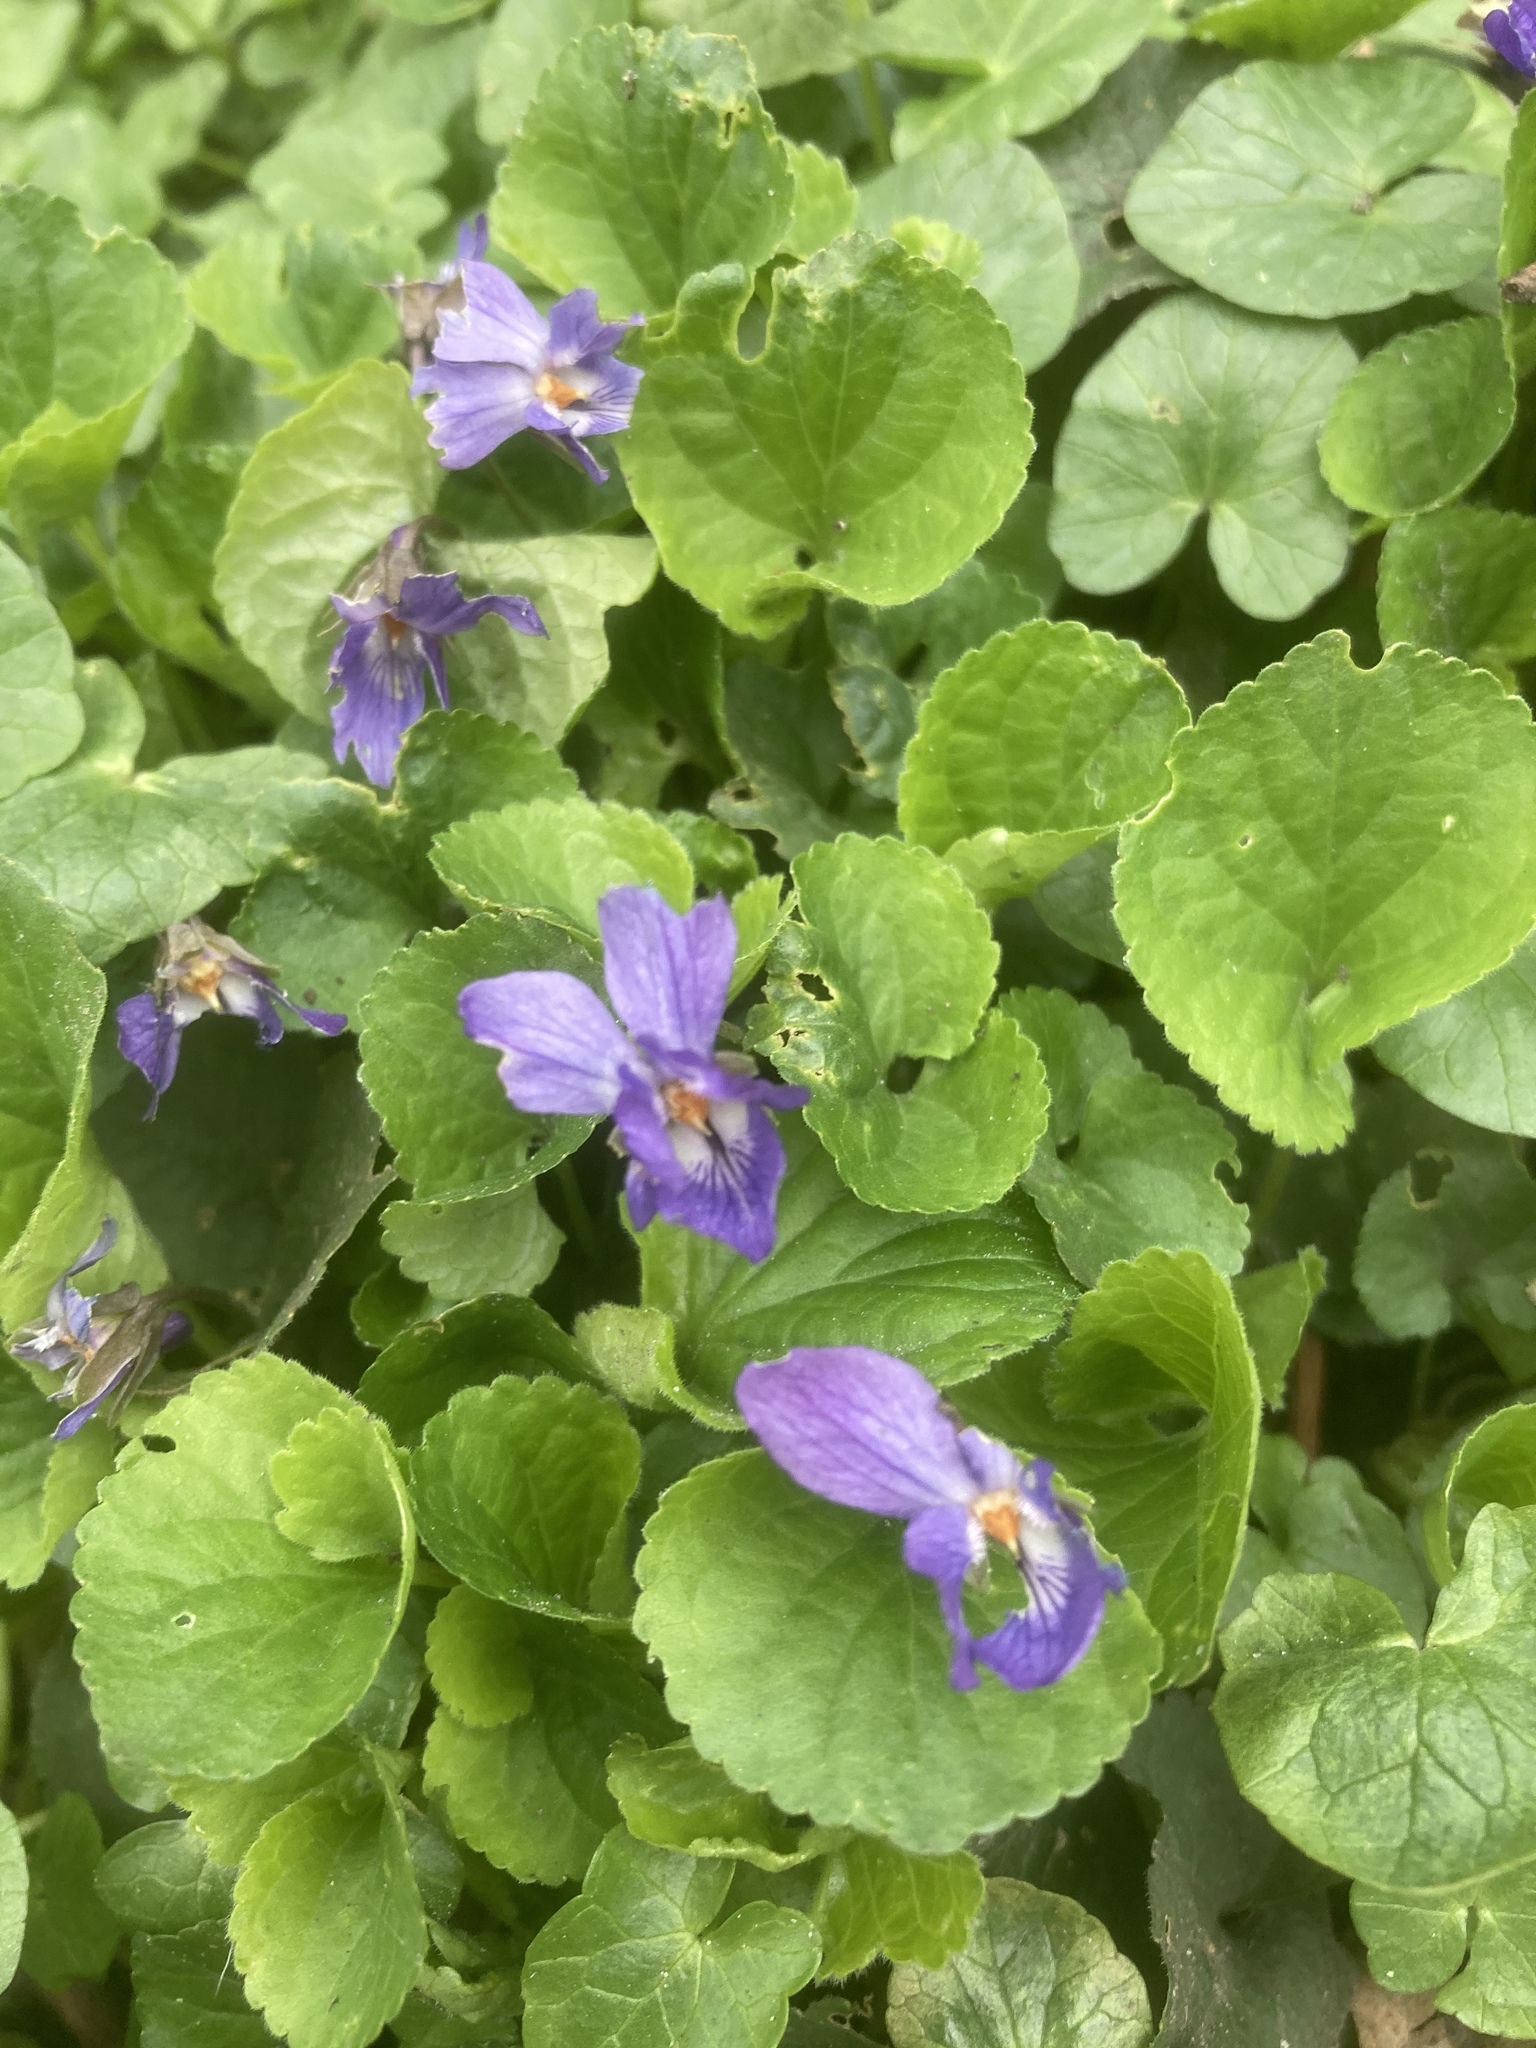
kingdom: Plantae
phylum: Tracheophyta
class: Magnoliopsida
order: Malpighiales
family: Violaceae
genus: Viola
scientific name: Viola odorata
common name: Sweet violet
